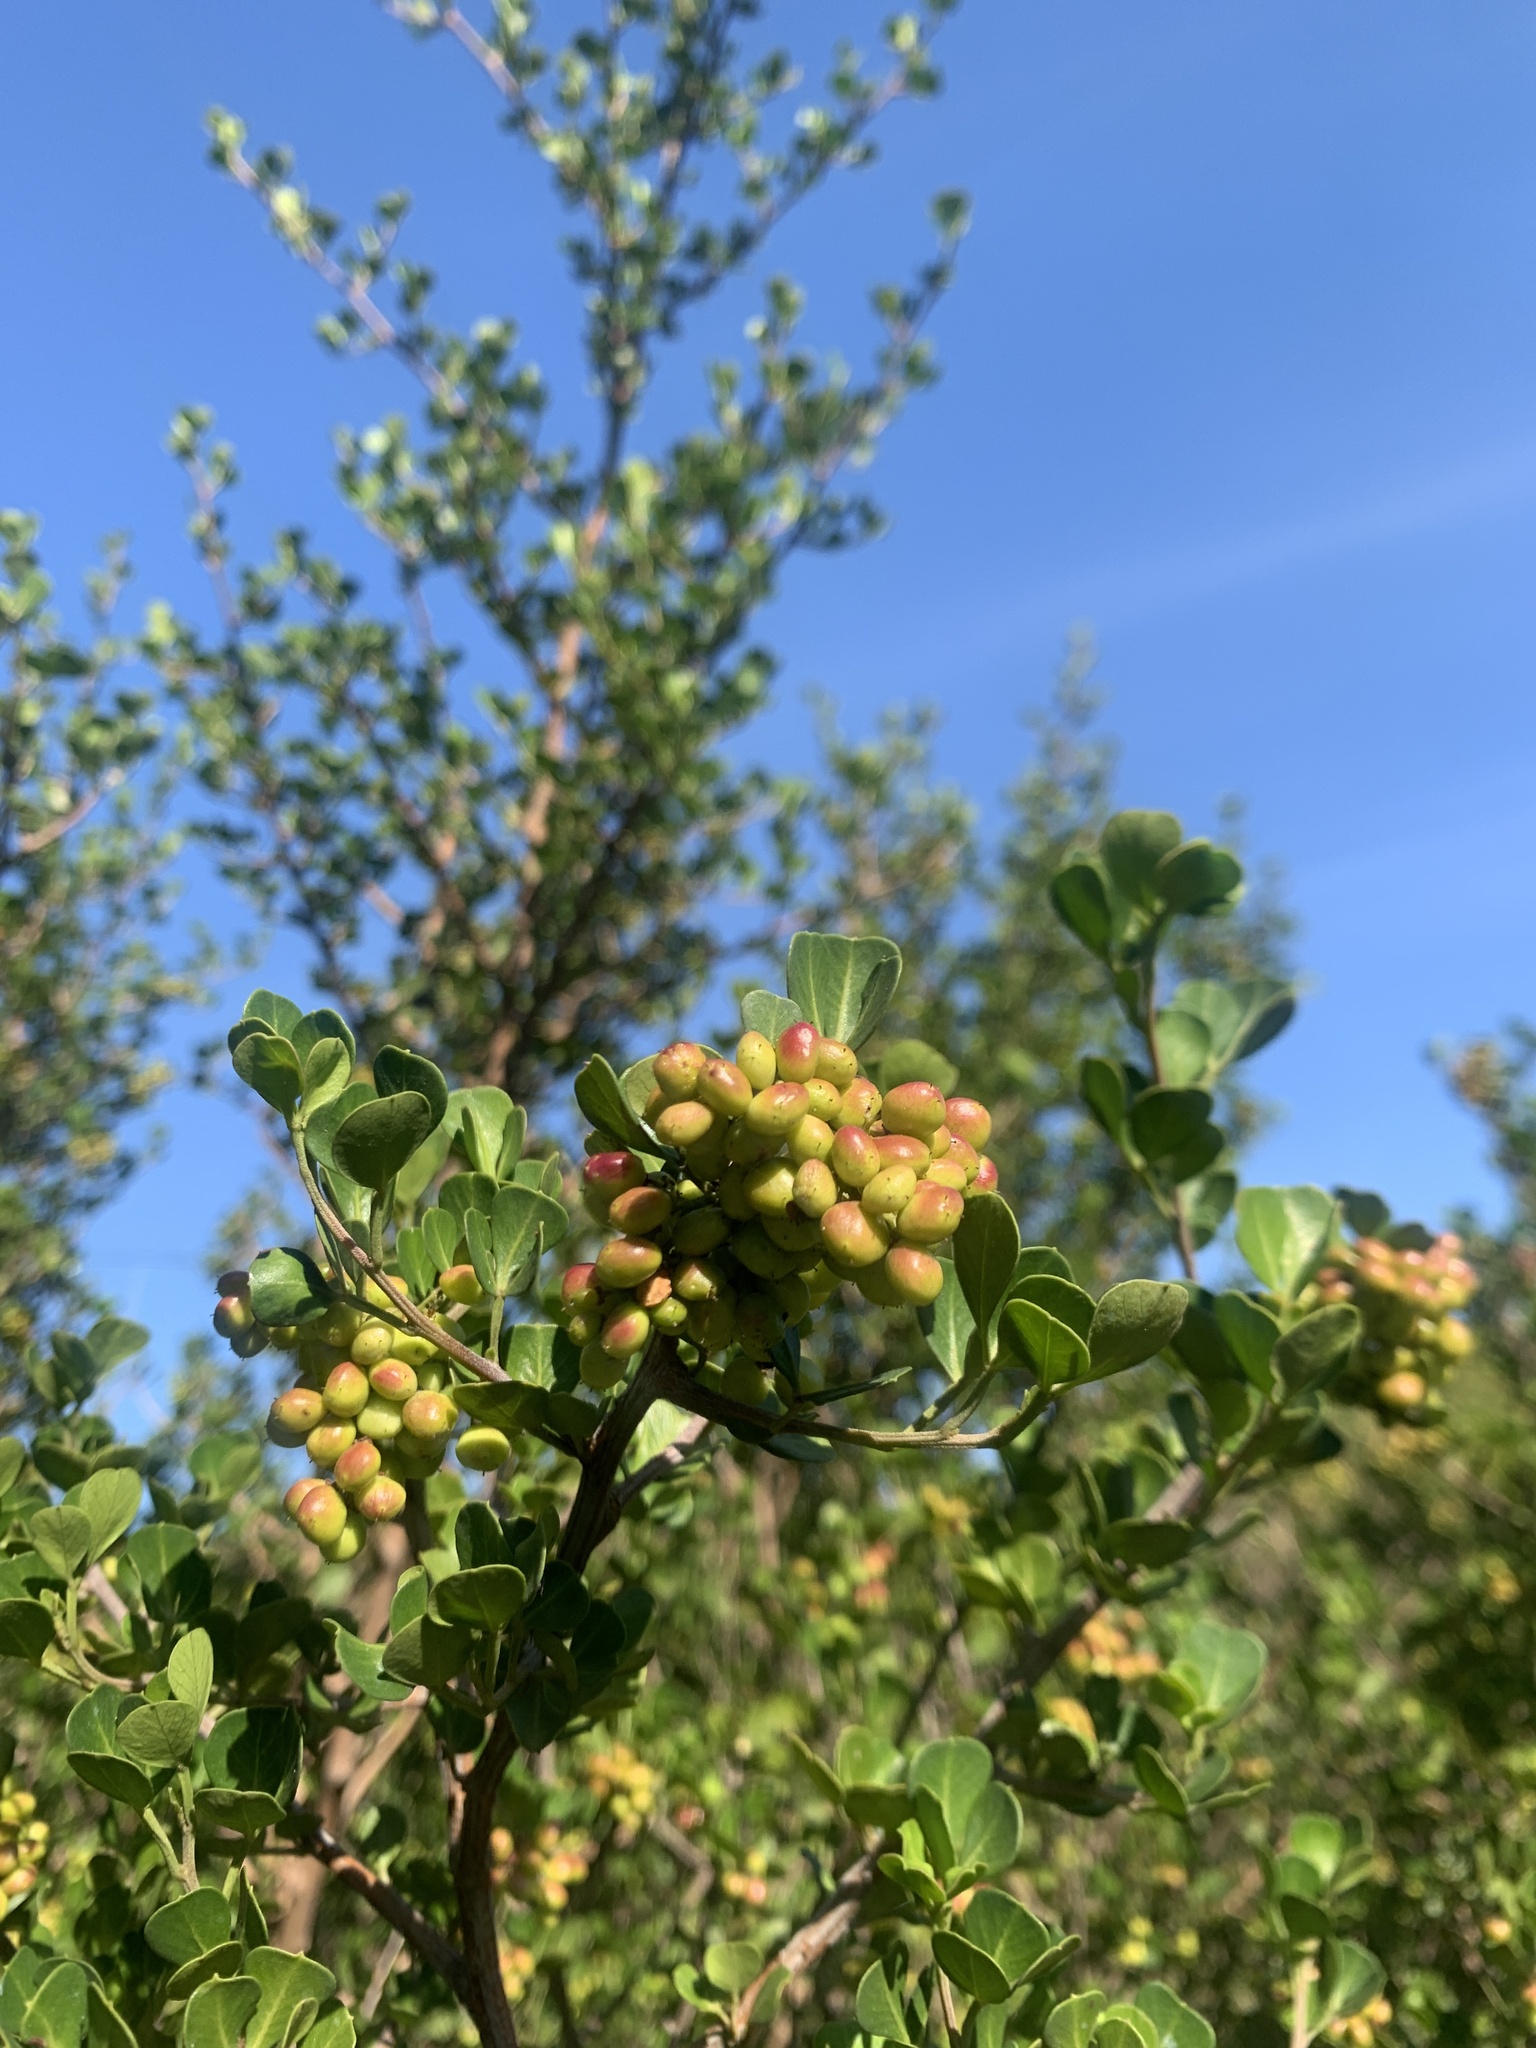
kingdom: Plantae
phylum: Tracheophyta
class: Magnoliopsida
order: Sapindales
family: Anacardiaceae
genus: Searsia
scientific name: Searsia glauca
